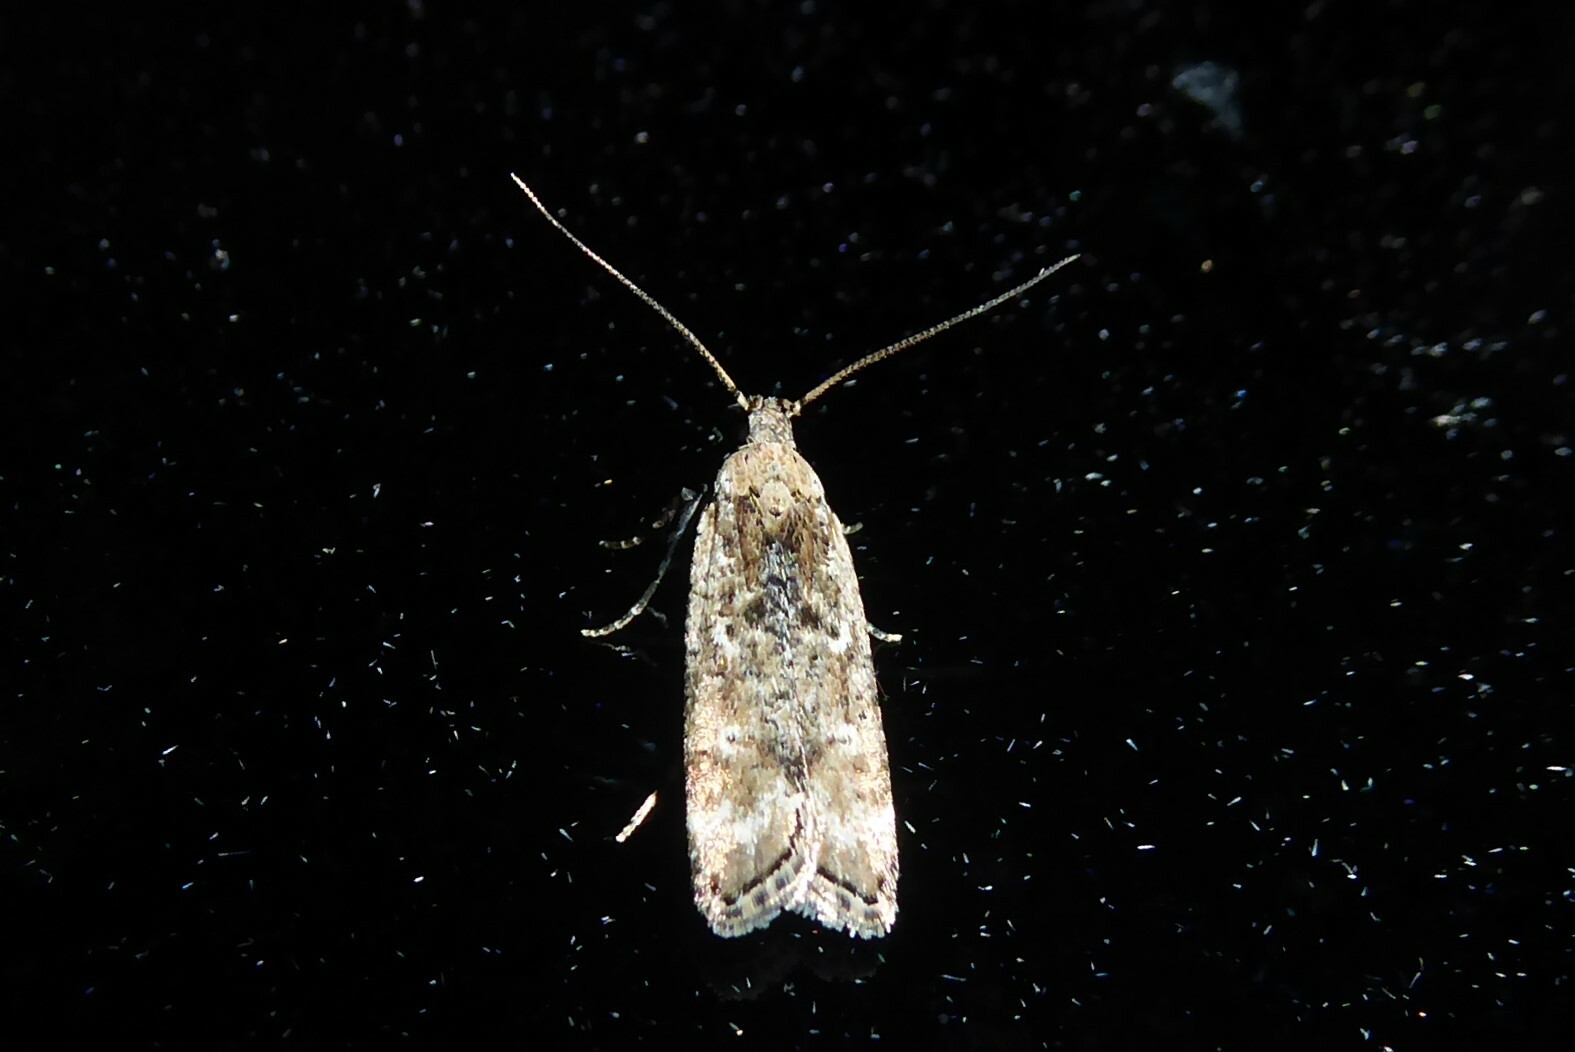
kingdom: Animalia
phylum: Arthropoda
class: Insecta
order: Lepidoptera
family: Gelechiidae
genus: Anisoplaca
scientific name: Anisoplaca achyrota
